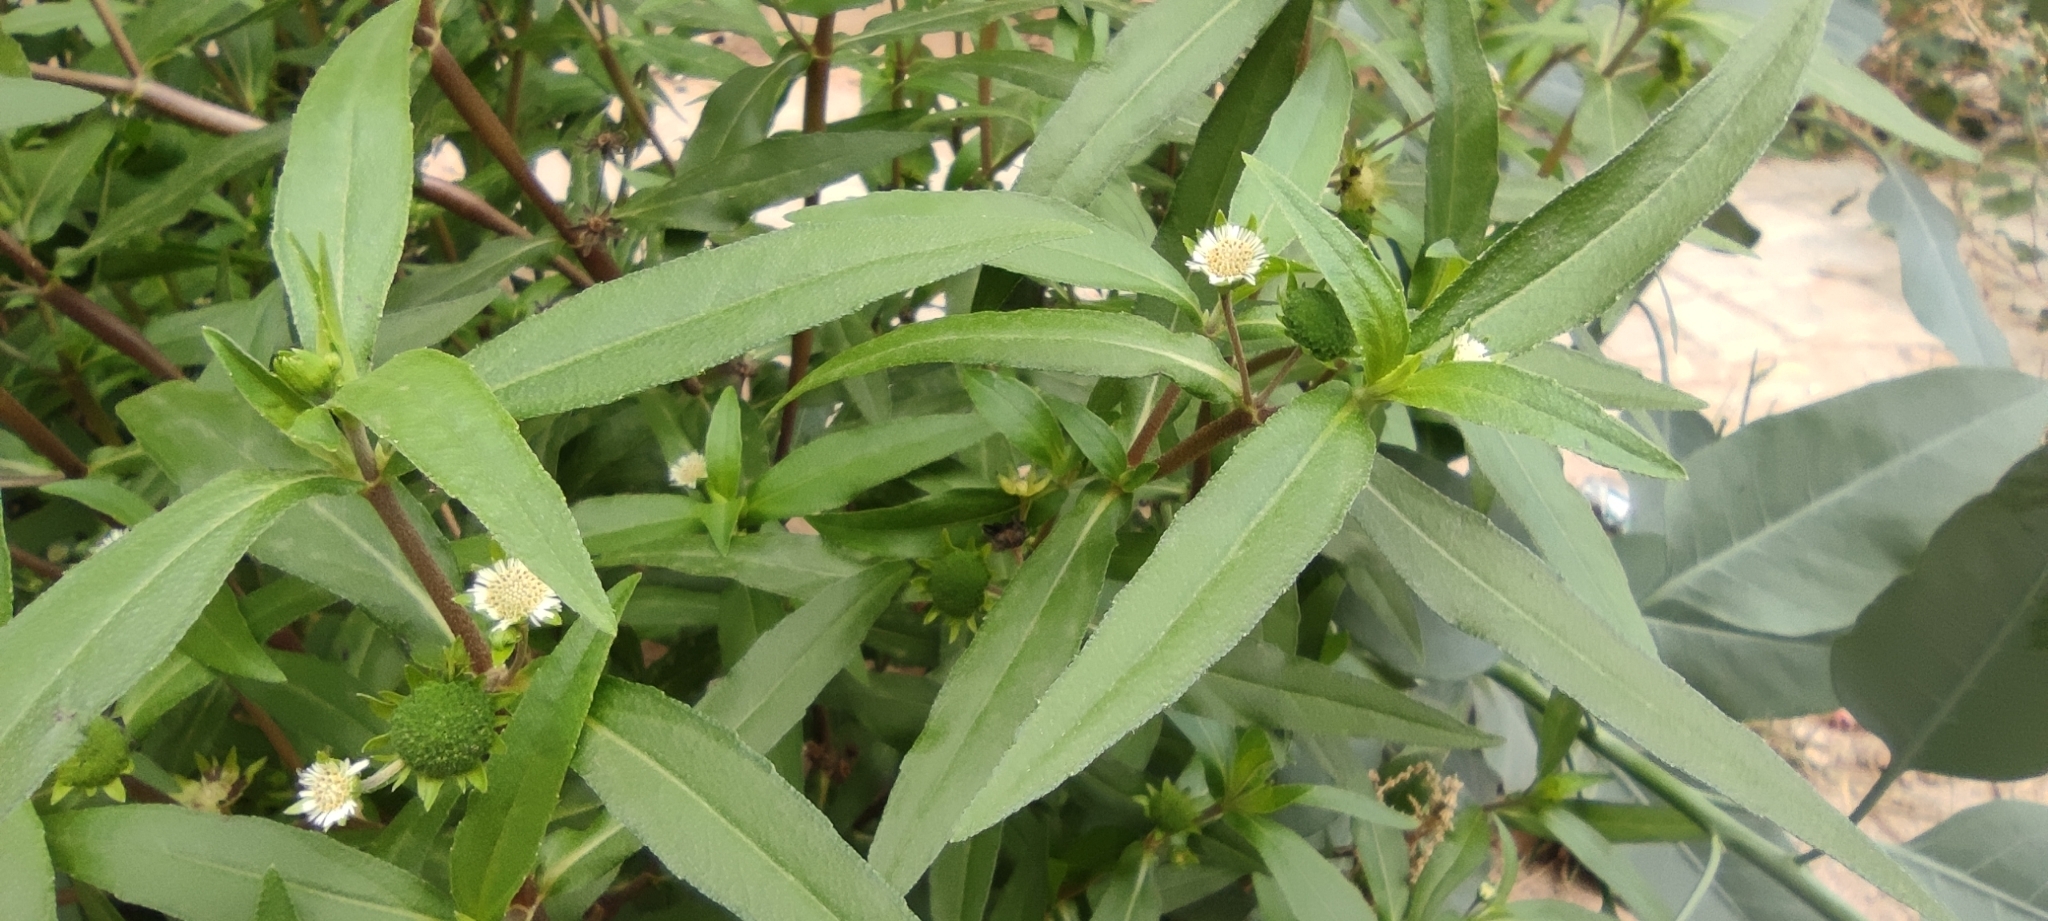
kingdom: Plantae
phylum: Tracheophyta
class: Magnoliopsida
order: Asterales
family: Asteraceae
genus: Eclipta
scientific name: Eclipta prostrata
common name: False daisy
